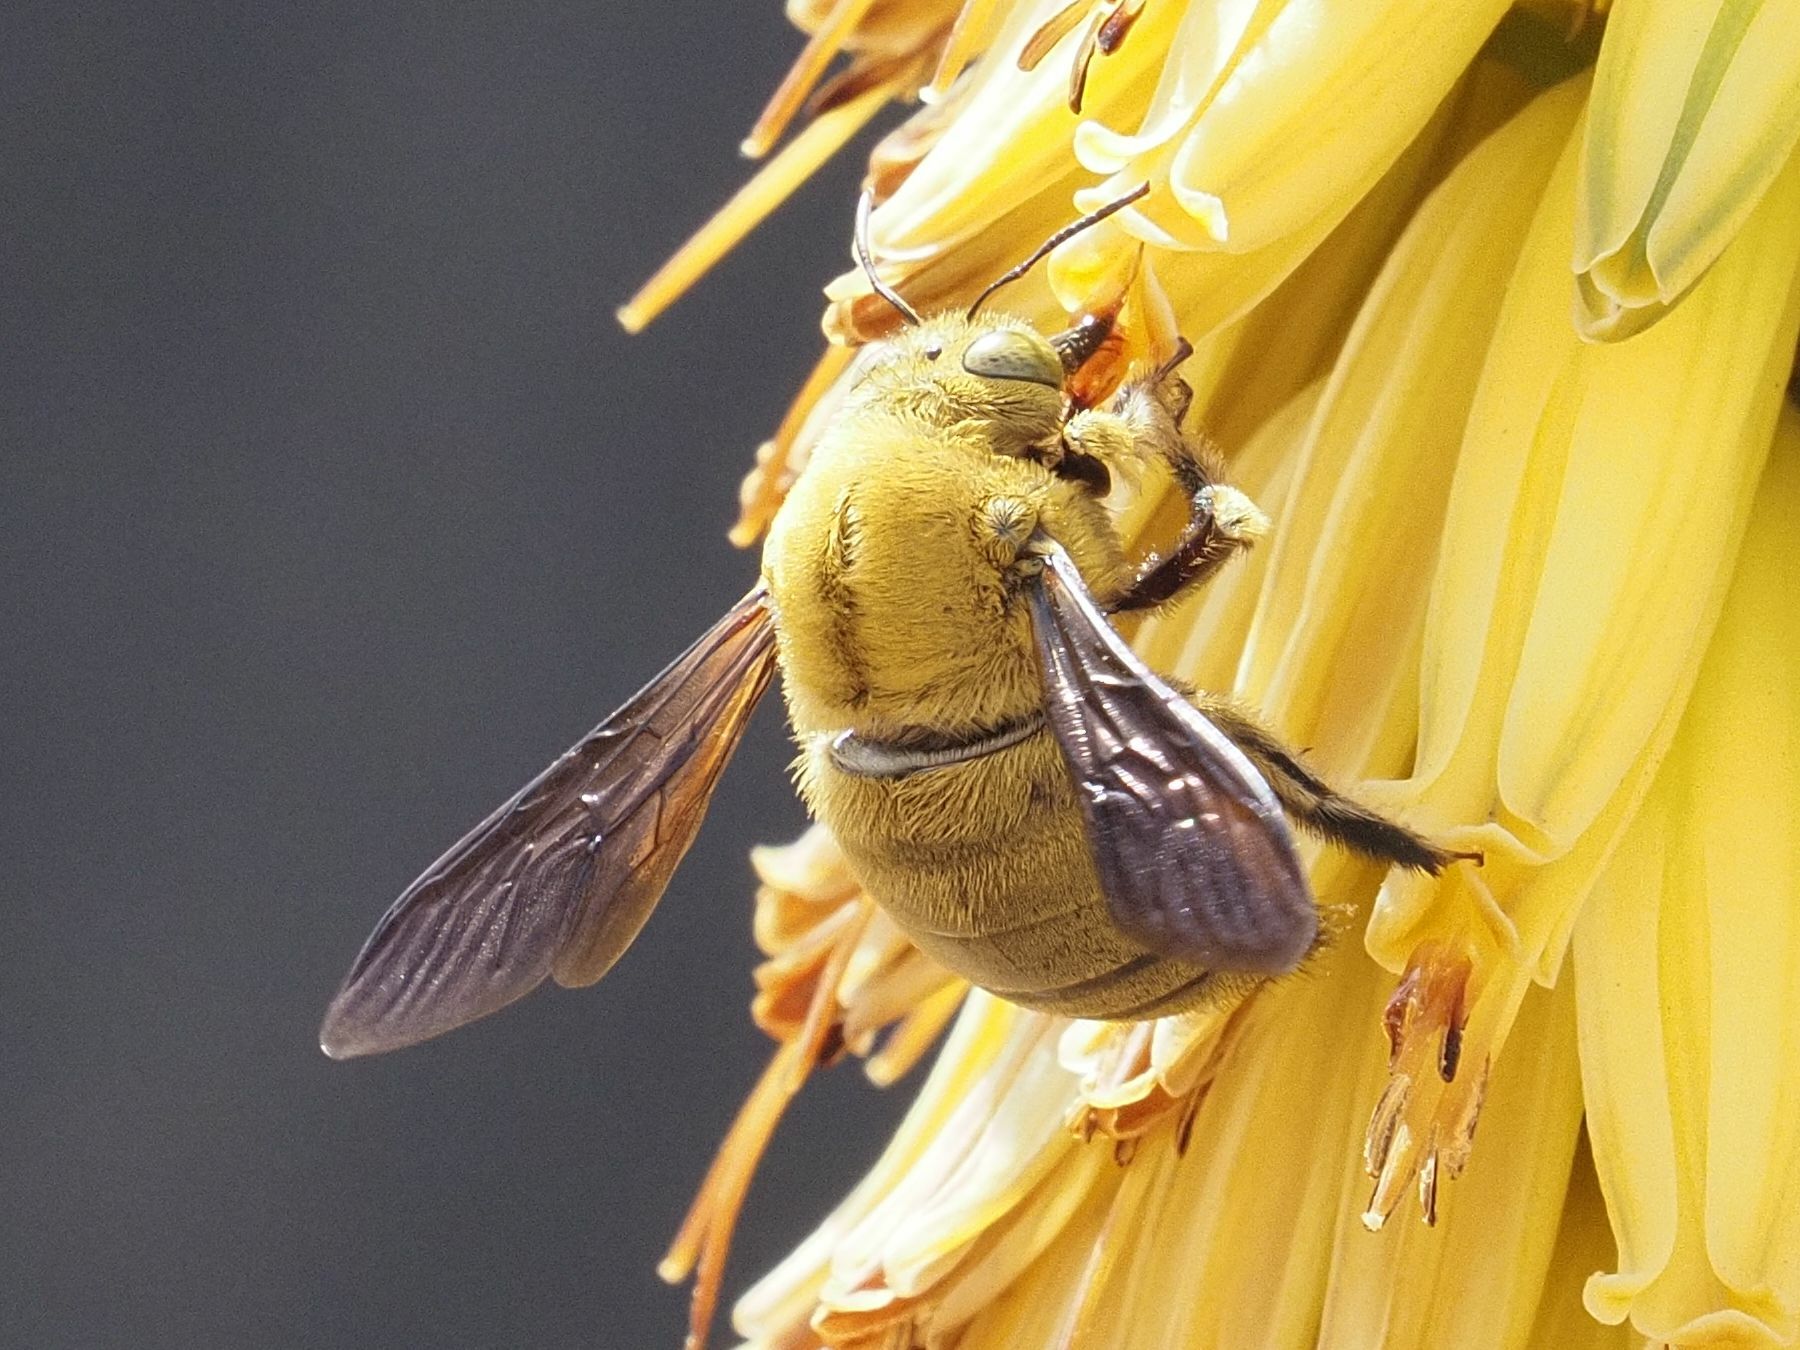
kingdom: Animalia
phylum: Arthropoda
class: Insecta
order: Hymenoptera
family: Apidae
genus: Xylocopa
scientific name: Xylocopa pubescens
